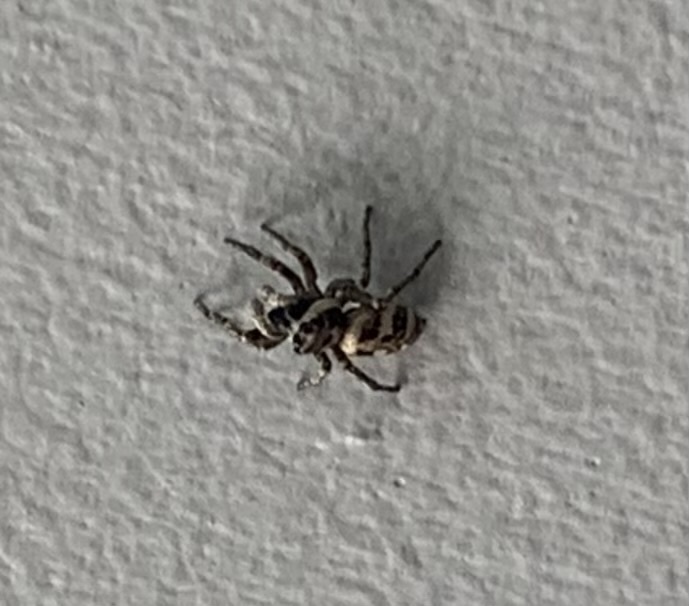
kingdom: Animalia
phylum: Arthropoda
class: Arachnida
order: Araneae
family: Salticidae
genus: Salticus
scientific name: Salticus scenicus
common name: Zebra jumper
